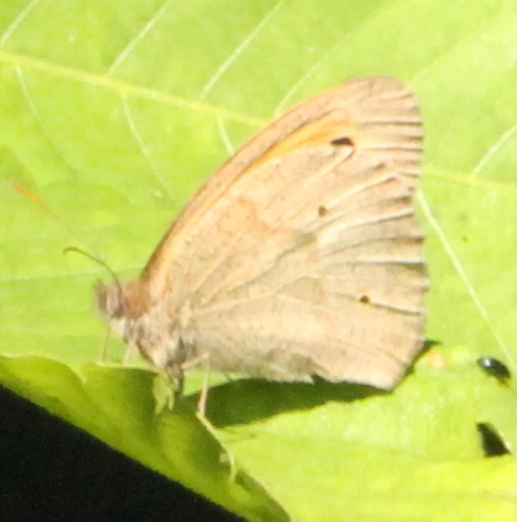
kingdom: Animalia
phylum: Arthropoda
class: Insecta
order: Lepidoptera
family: Nymphalidae
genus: Maniola
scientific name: Maniola jurtina
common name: Meadow brown
